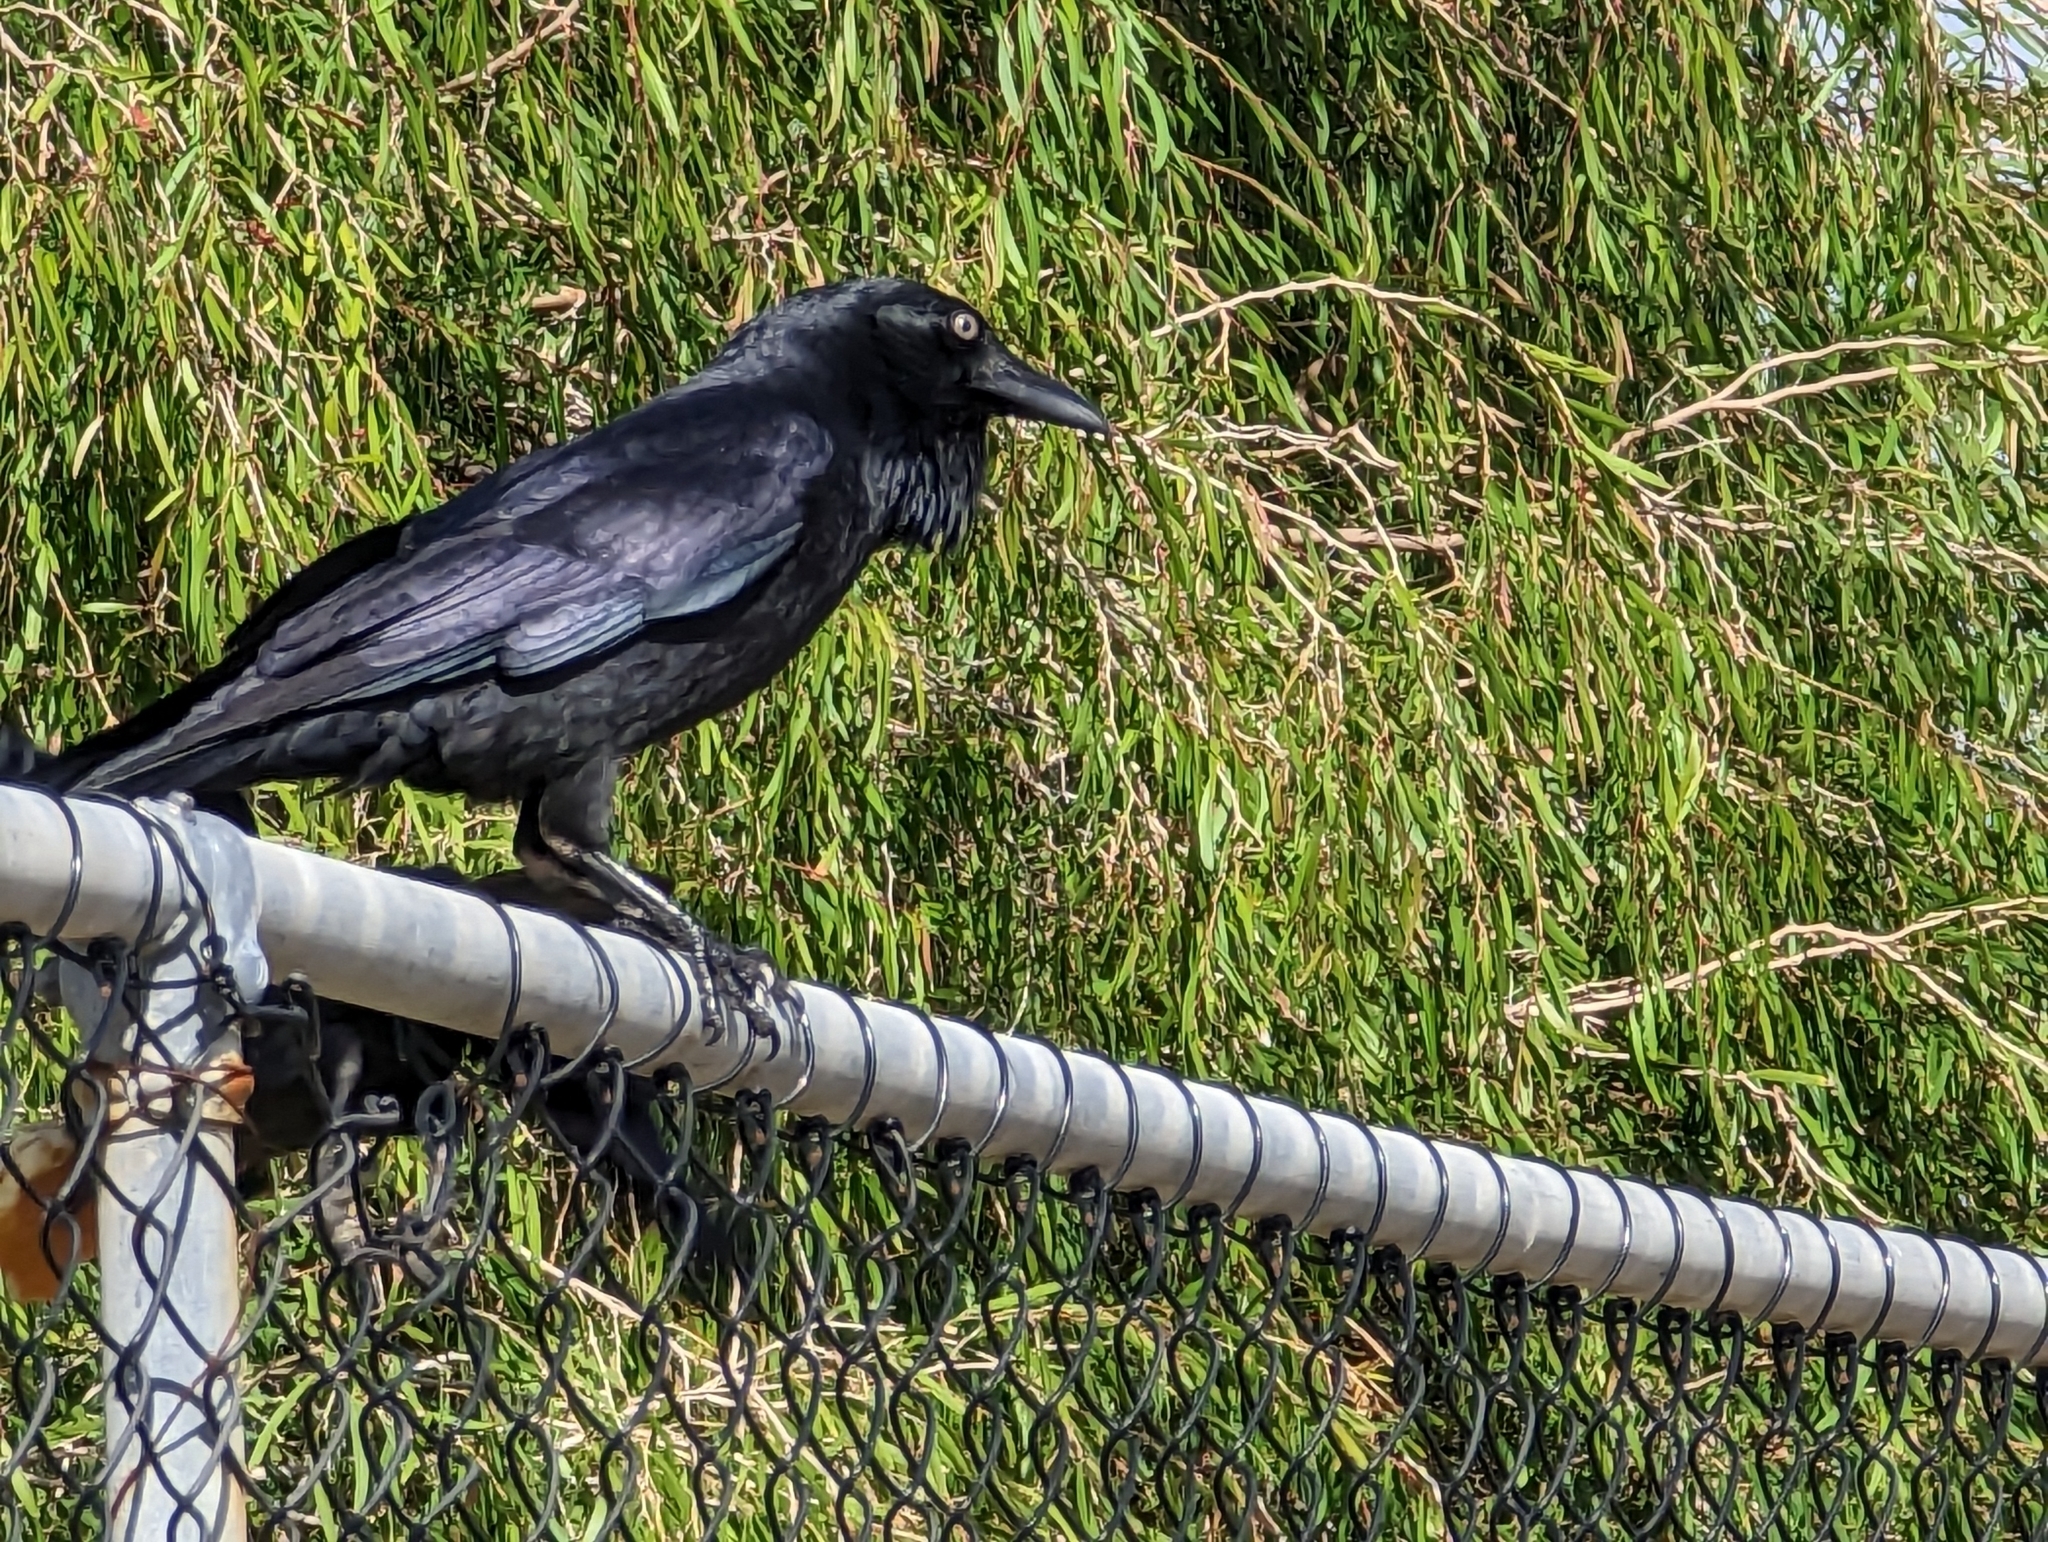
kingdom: Animalia
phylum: Chordata
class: Aves
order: Passeriformes
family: Corvidae
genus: Corvus
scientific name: Corvus coronoides
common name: Australian raven
